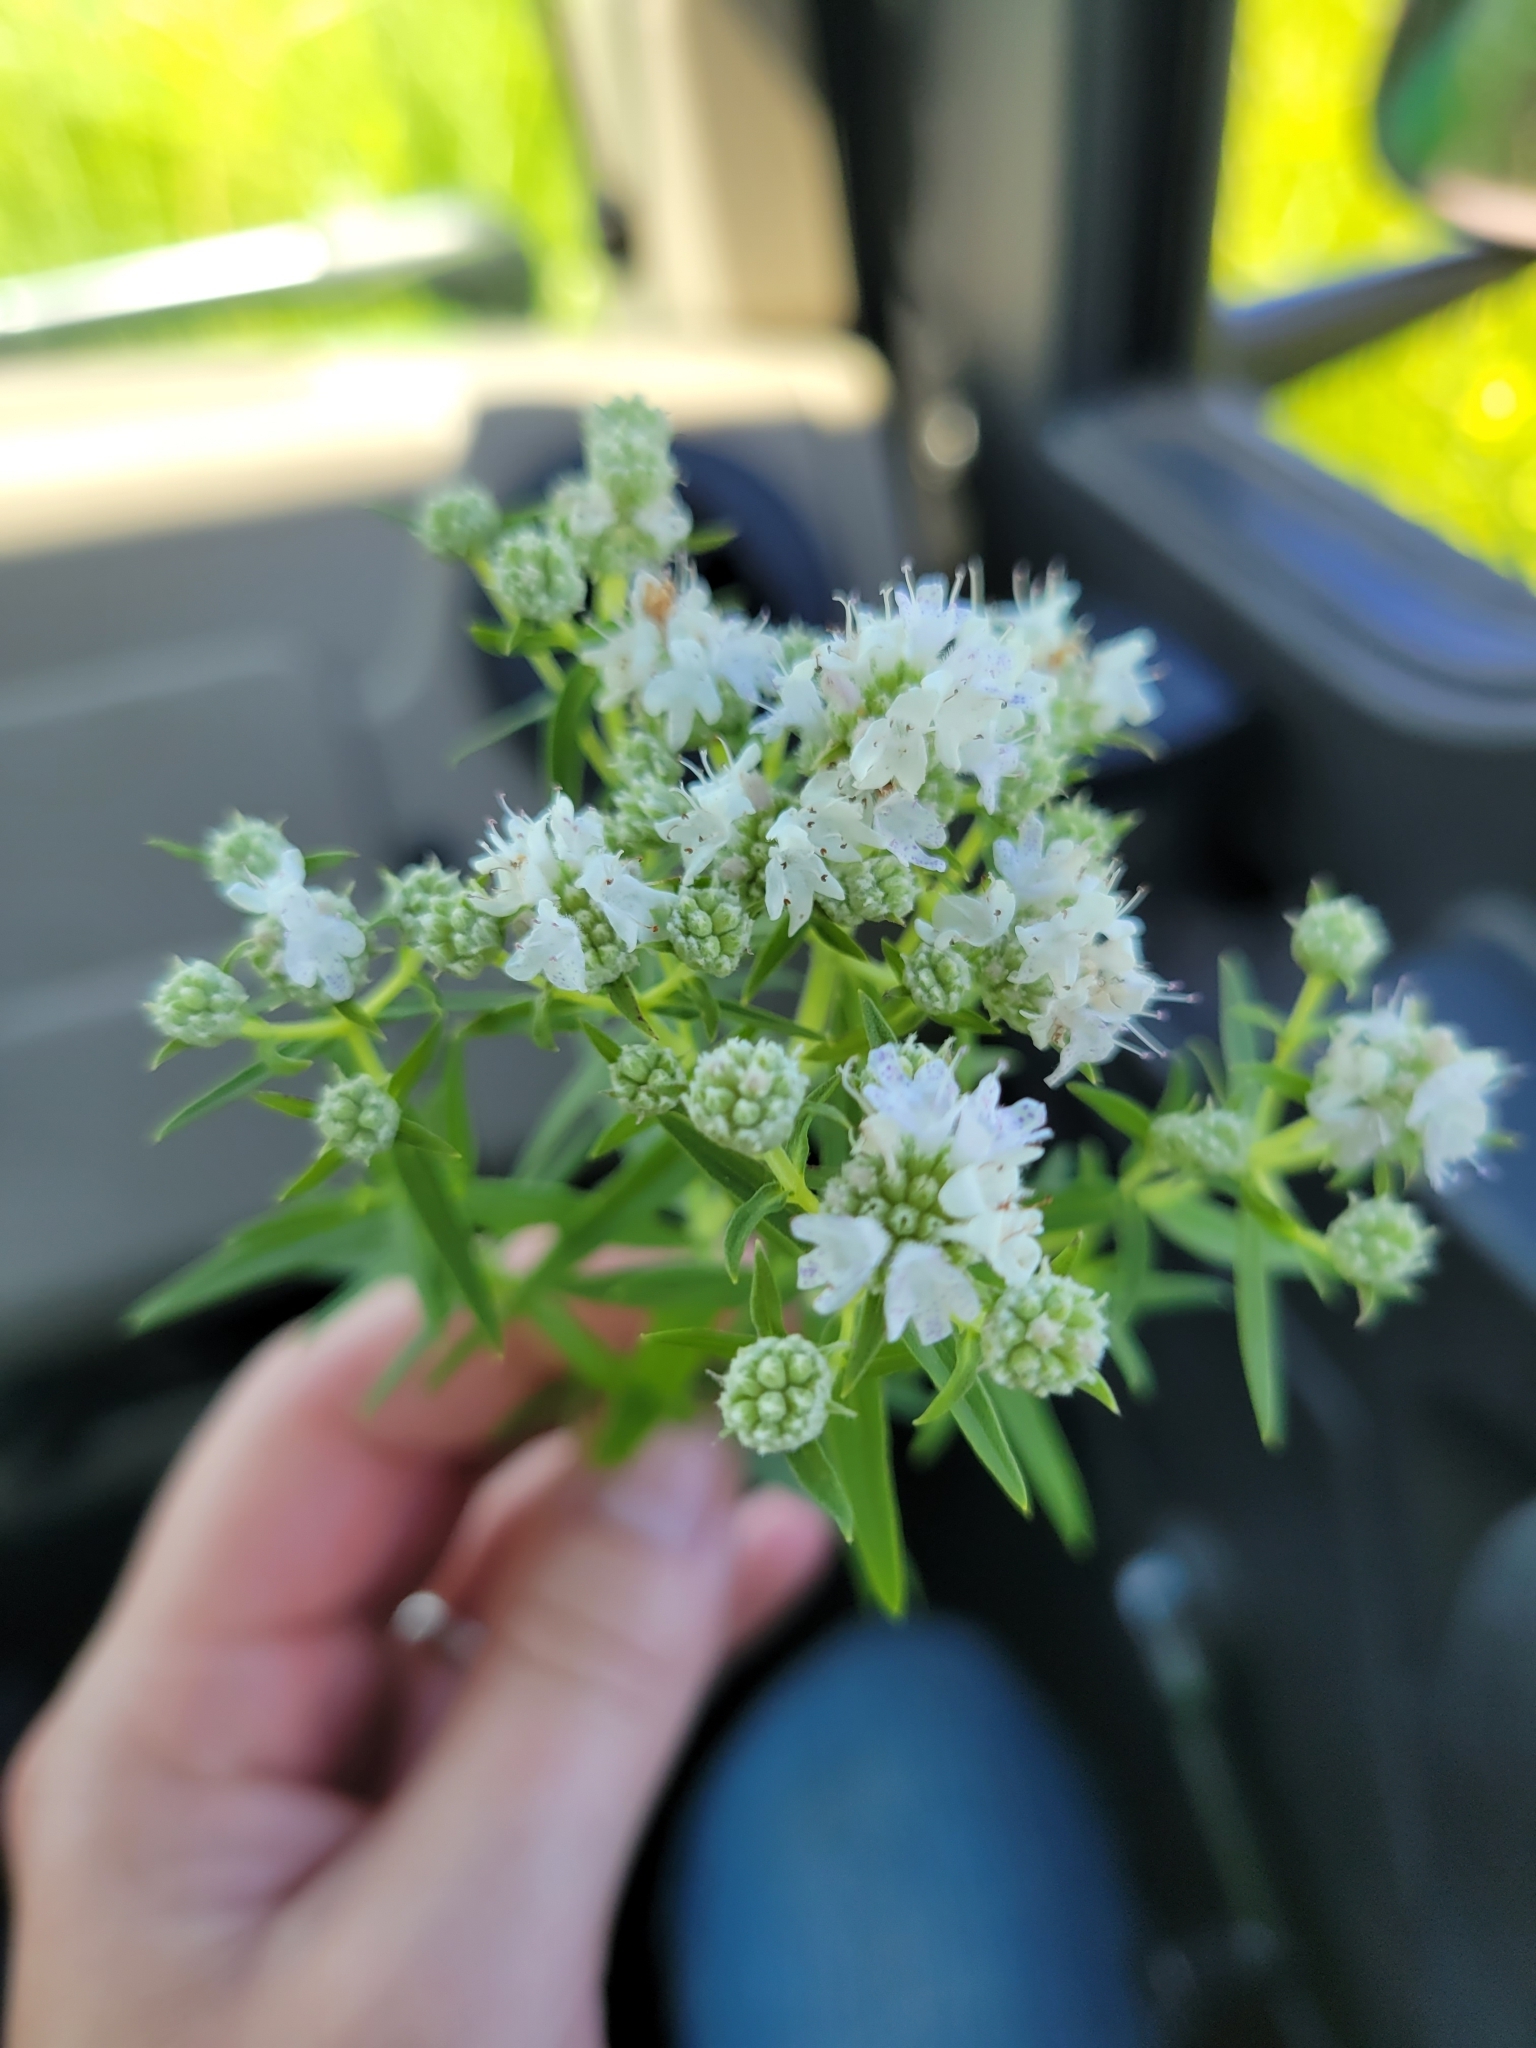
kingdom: Plantae
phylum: Tracheophyta
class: Magnoliopsida
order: Lamiales
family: Lamiaceae
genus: Pycnanthemum
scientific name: Pycnanthemum virginianum
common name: Virginia mountain-mint
